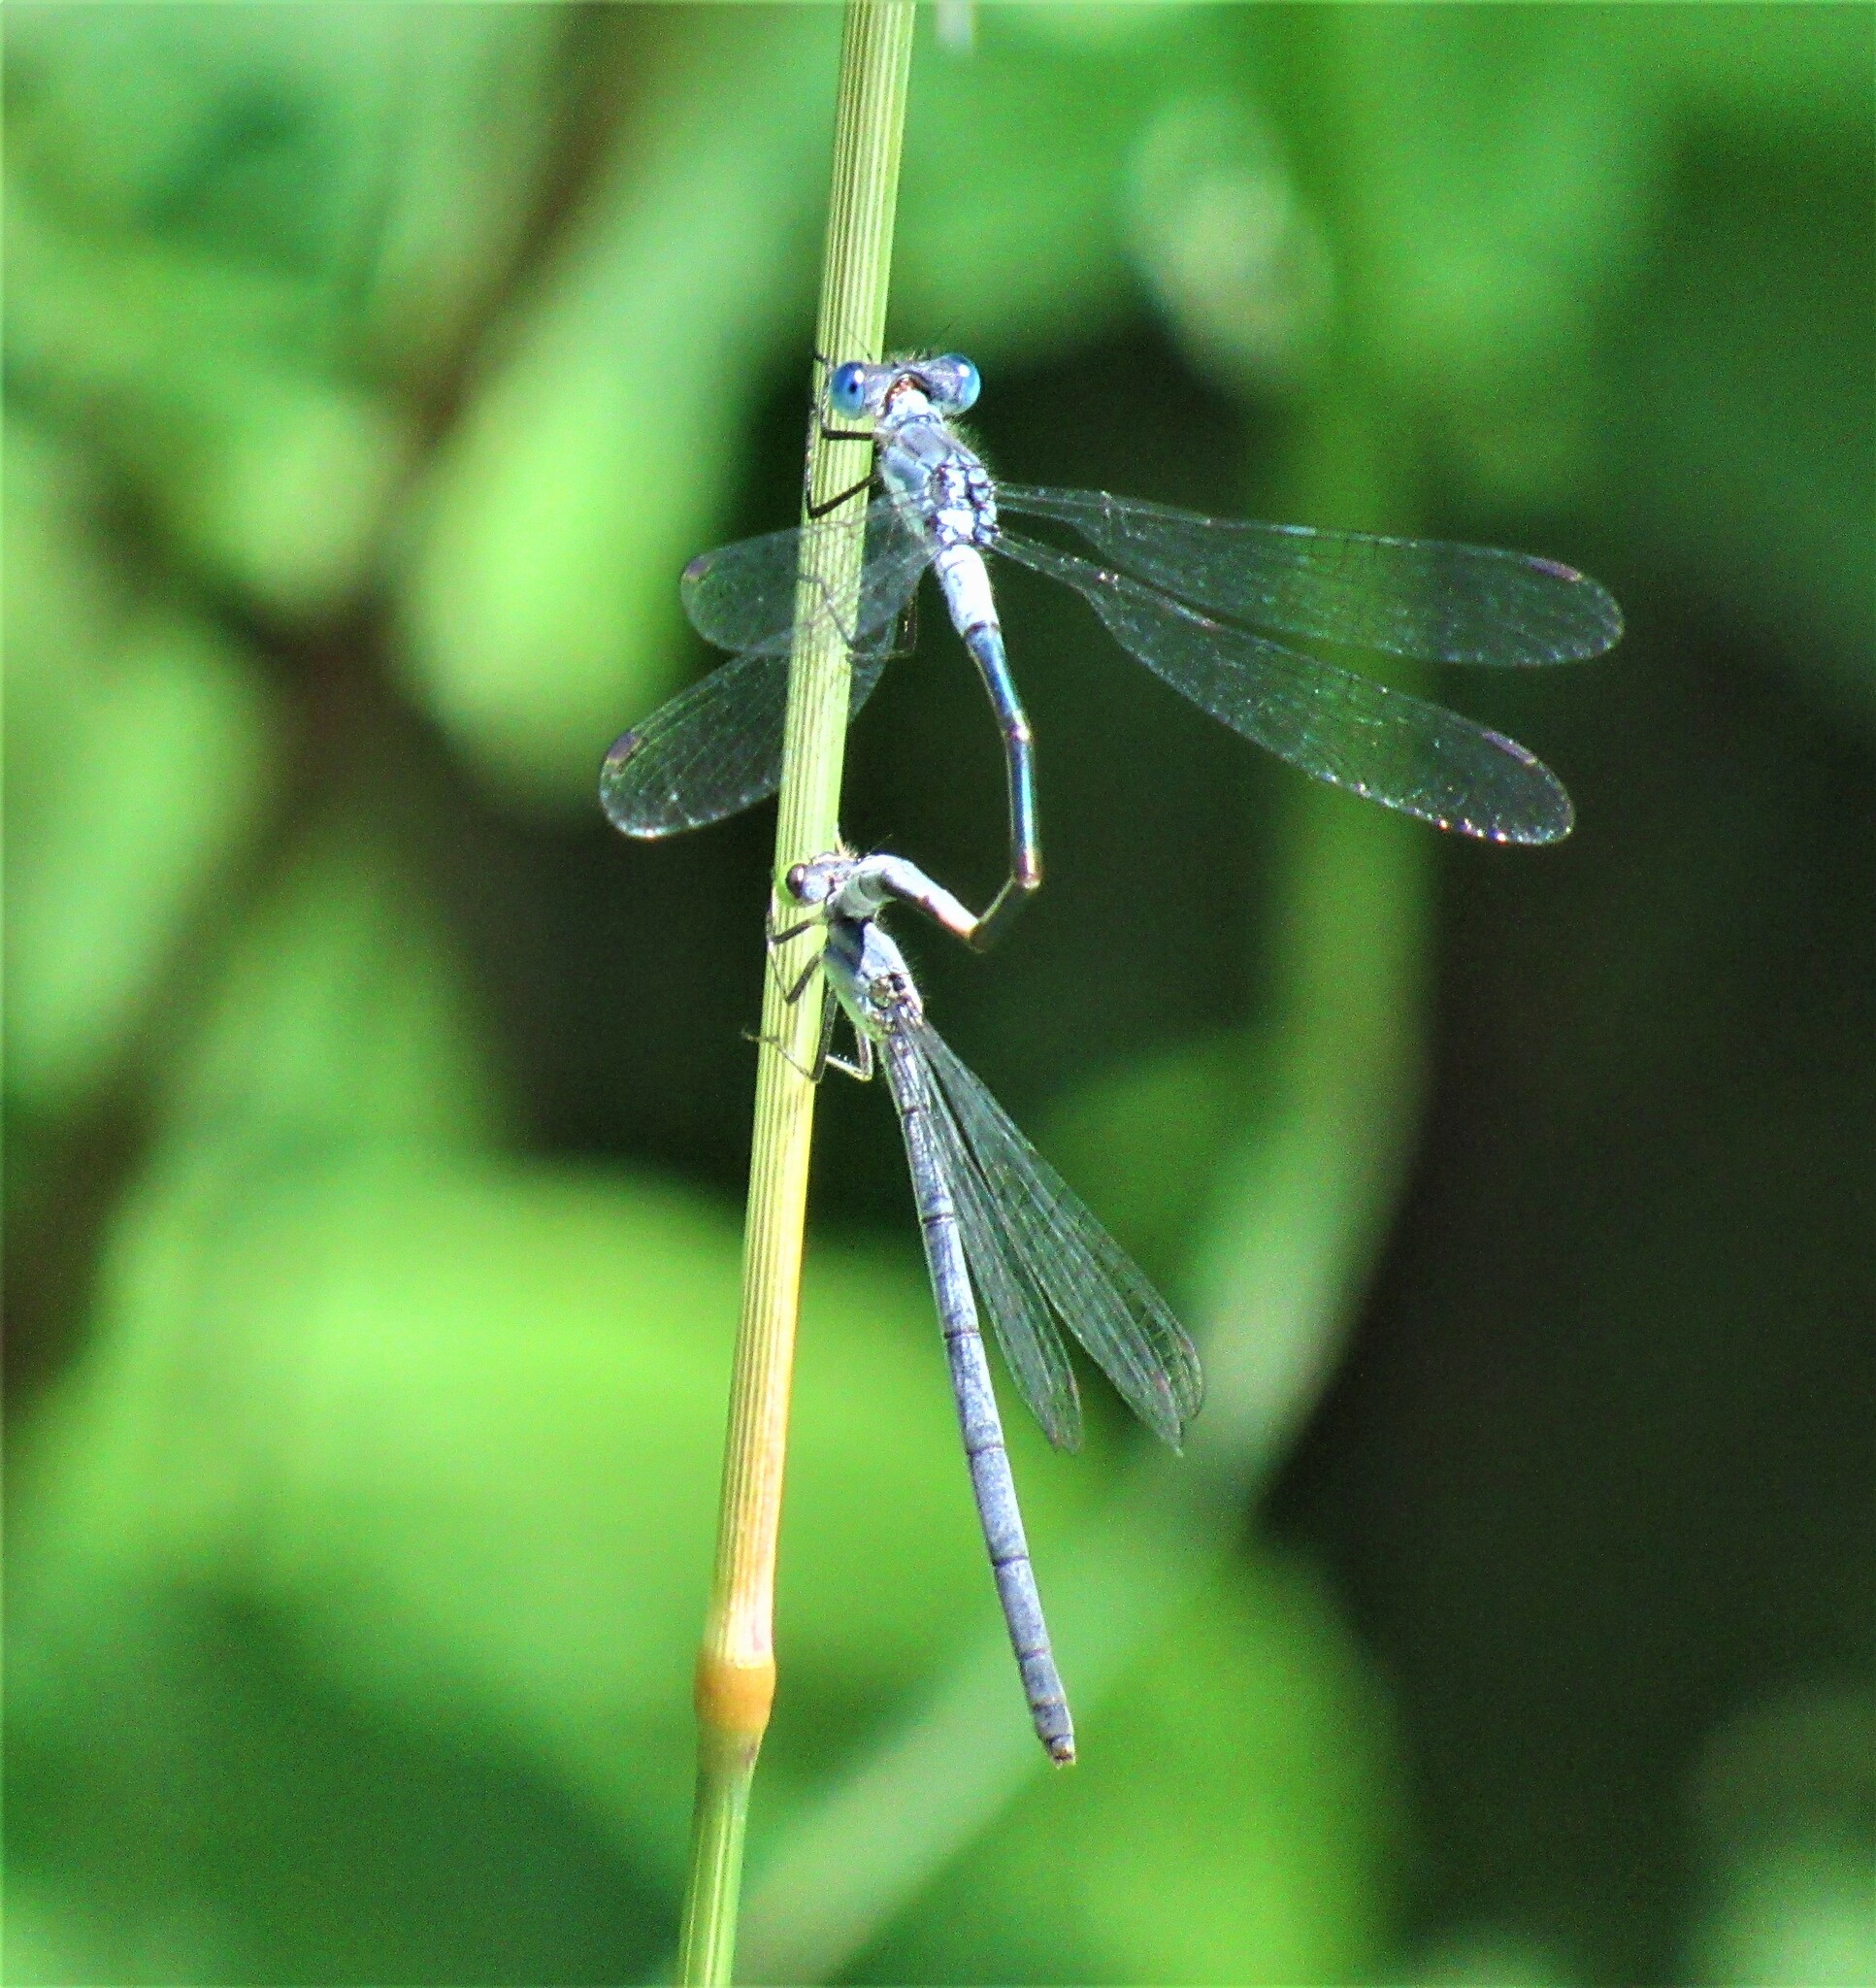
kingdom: Animalia
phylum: Arthropoda
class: Insecta
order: Odonata
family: Lestidae
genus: Lestes
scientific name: Lestes disjunctus
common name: Northern spreadwing
